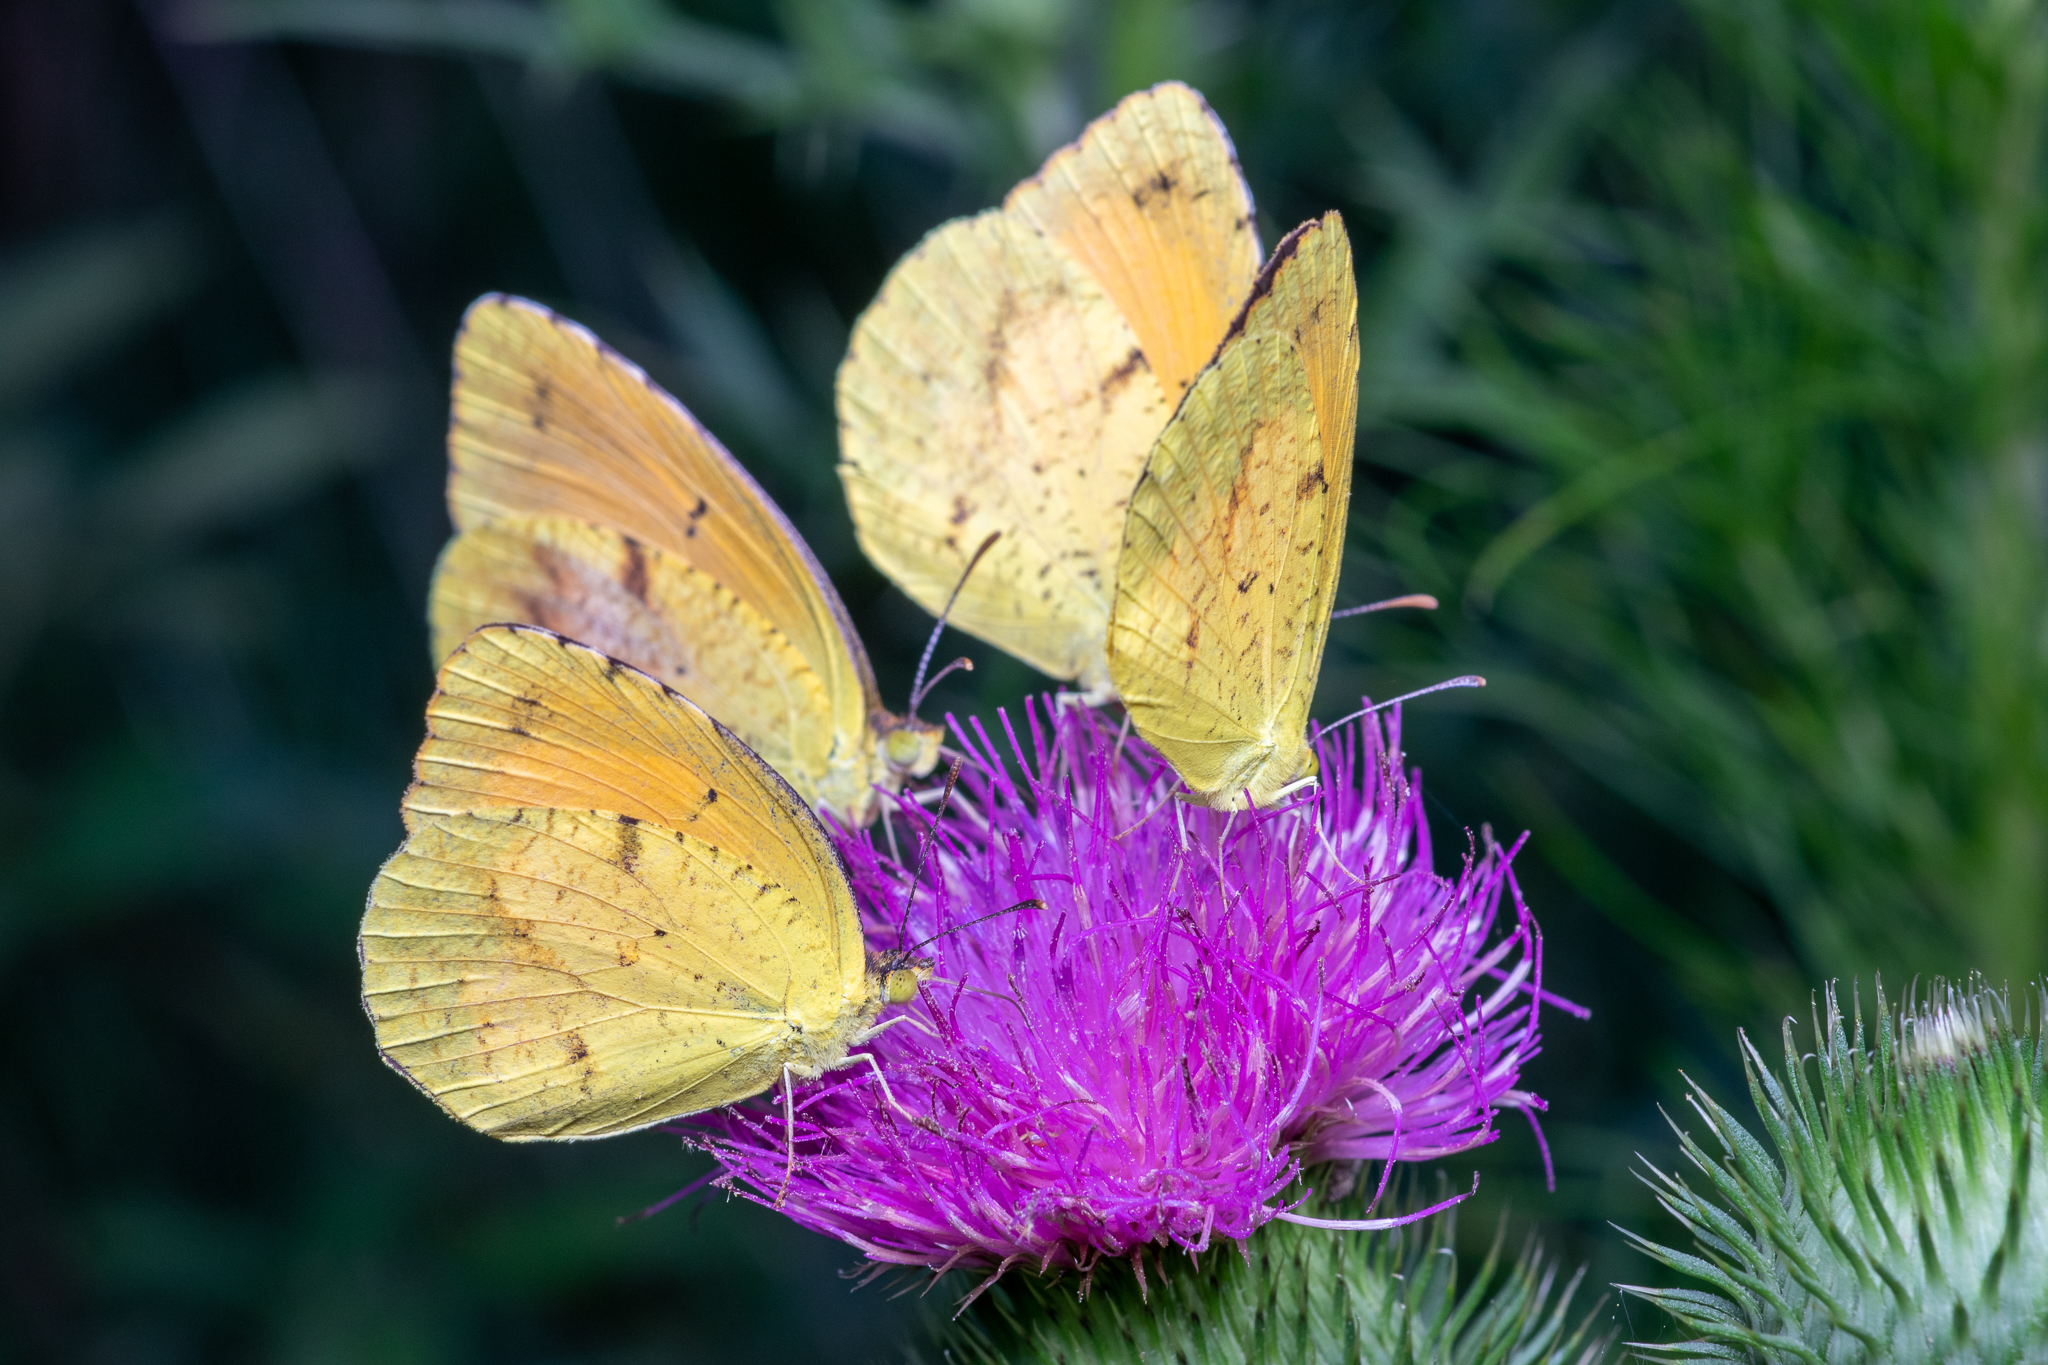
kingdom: Animalia
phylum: Arthropoda
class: Insecta
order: Lepidoptera
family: Pieridae
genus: Abaeis
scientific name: Abaeis nicippe
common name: Sleepy orange
